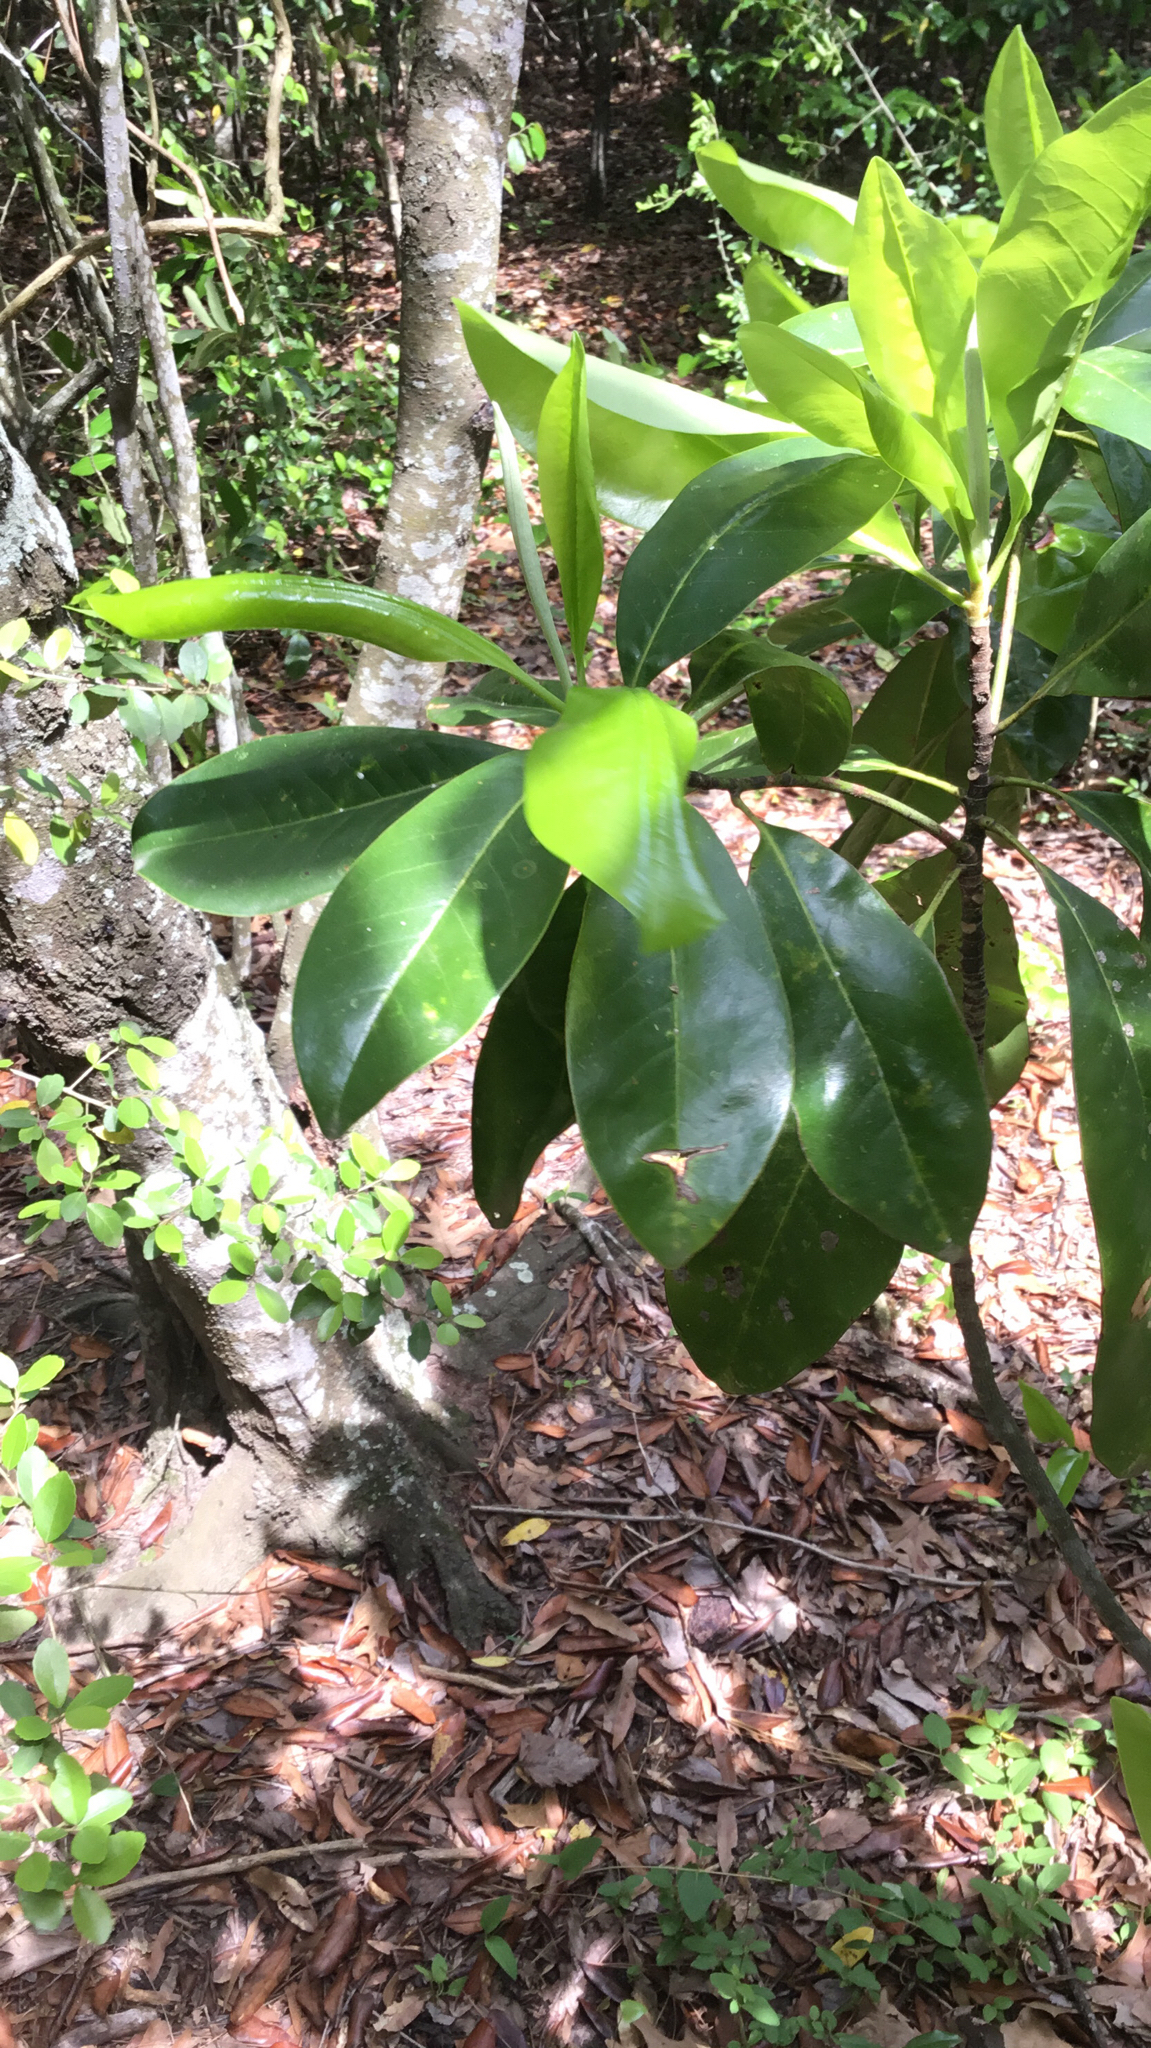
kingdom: Plantae
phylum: Tracheophyta
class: Magnoliopsida
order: Magnoliales
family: Magnoliaceae
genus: Magnolia
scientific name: Magnolia virginiana
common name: Swamp bay
